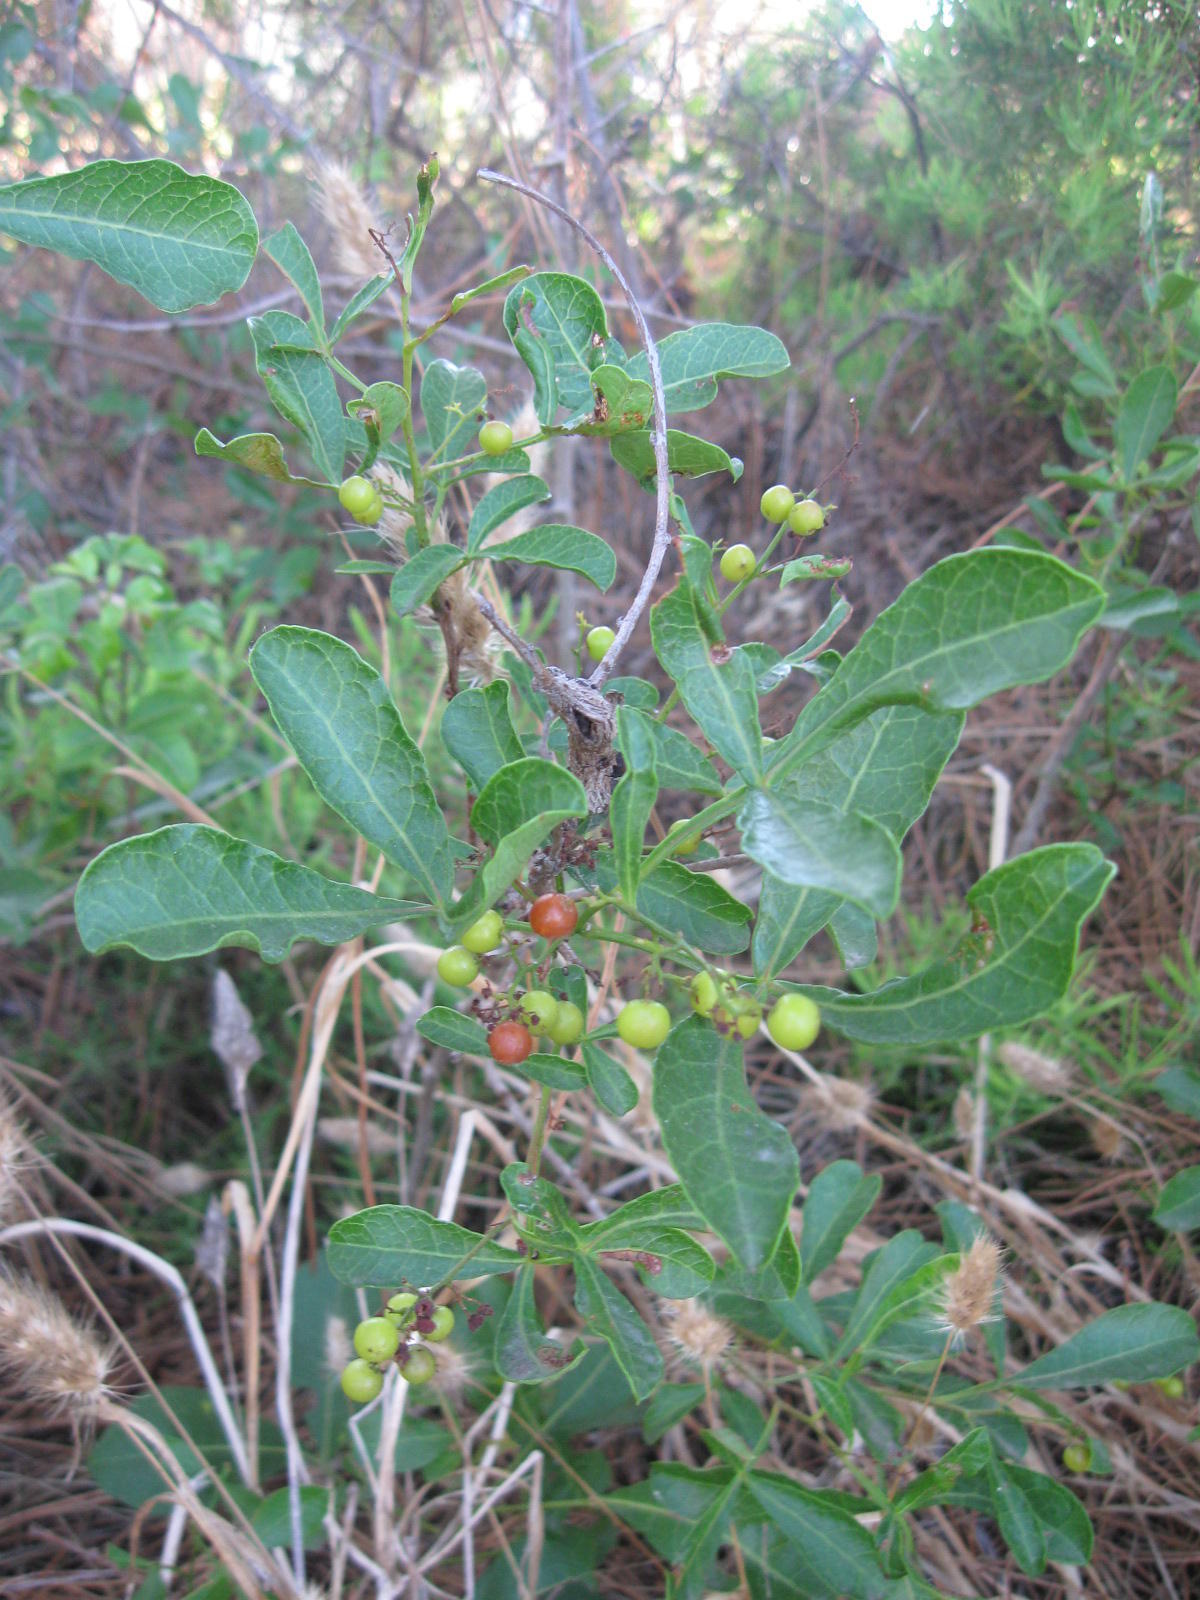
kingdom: Plantae
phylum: Tracheophyta
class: Magnoliopsida
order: Sapindales
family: Anacardiaceae
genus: Searsia
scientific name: Searsia laevigata
